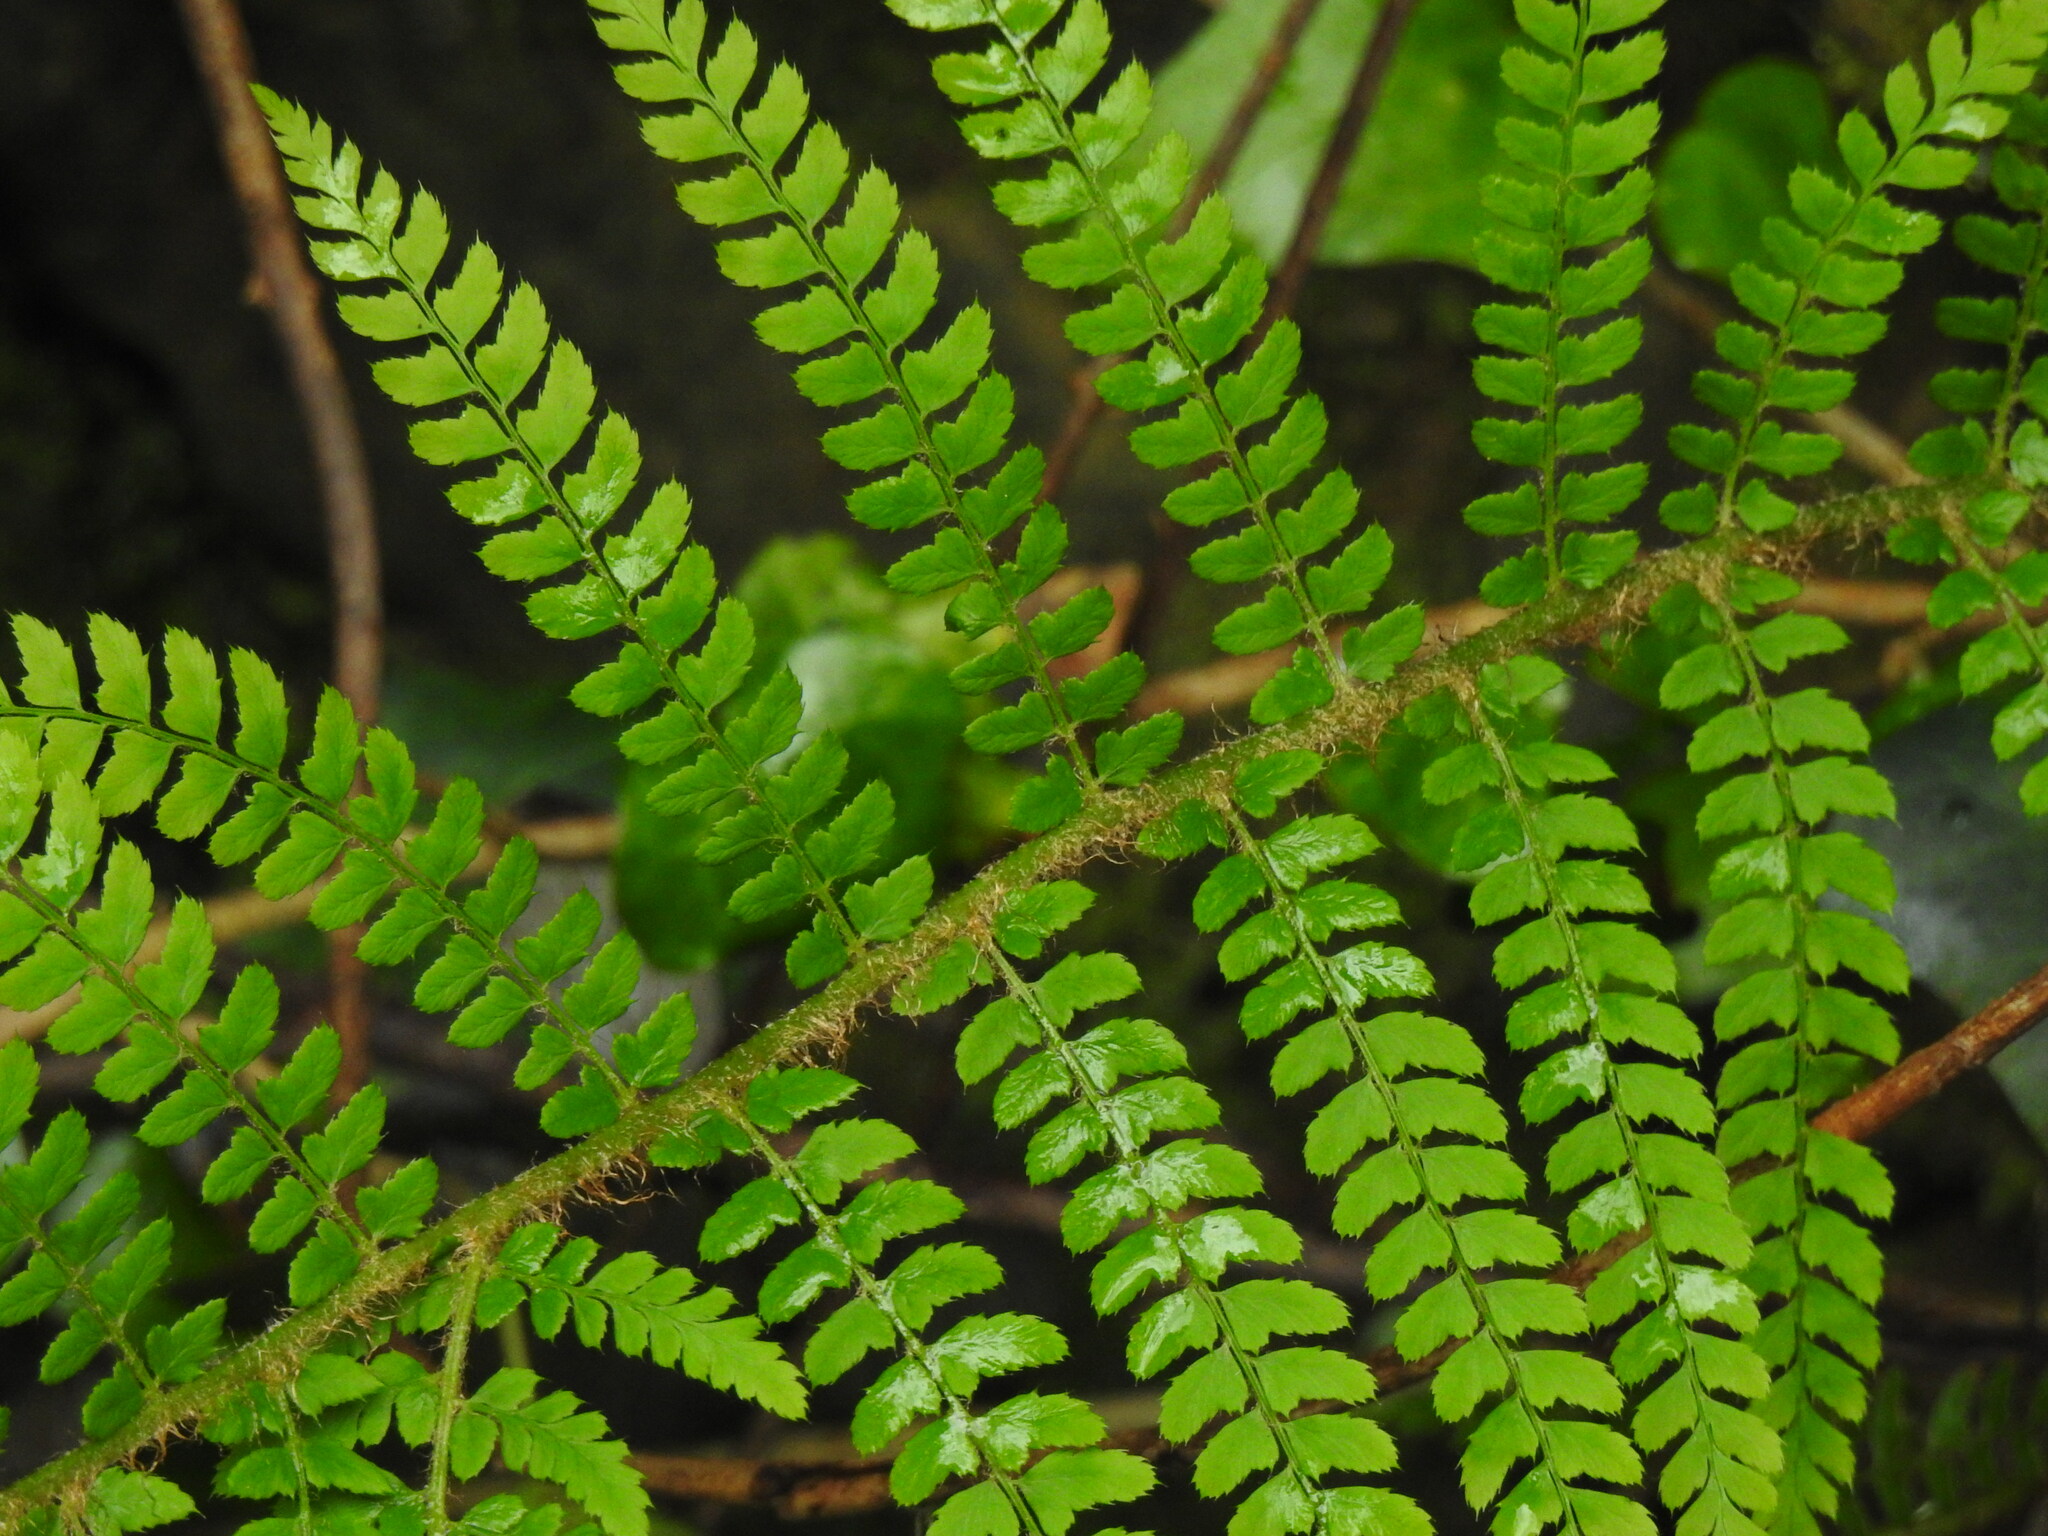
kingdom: Plantae
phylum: Tracheophyta
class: Polypodiopsida
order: Polypodiales
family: Dryopteridaceae
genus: Polystichum
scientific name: Polystichum setiferum
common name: Soft shield-fern
